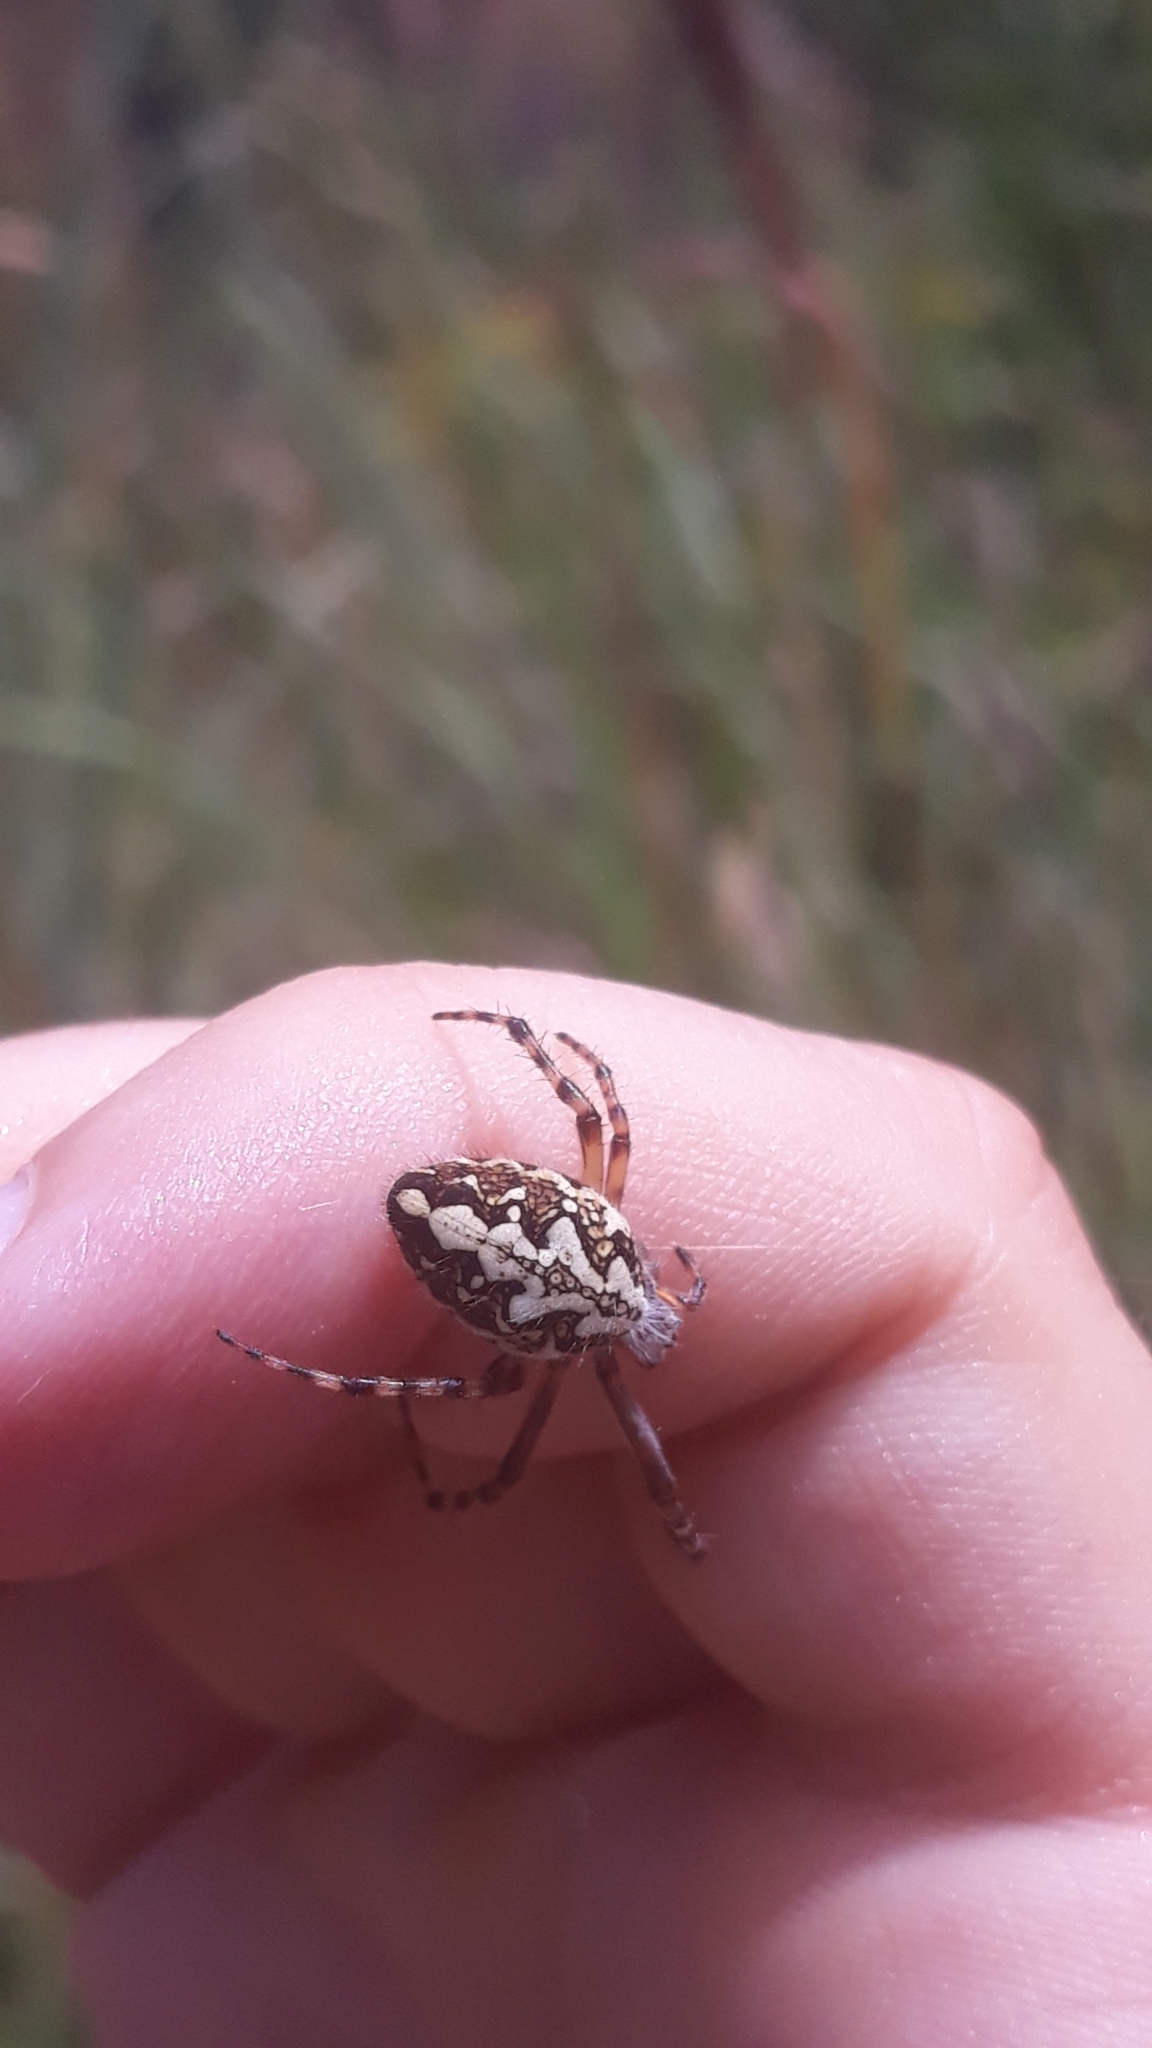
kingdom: Animalia
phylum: Arthropoda
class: Arachnida
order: Araneae
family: Araneidae
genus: Aculepeira
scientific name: Aculepeira ceropegia
